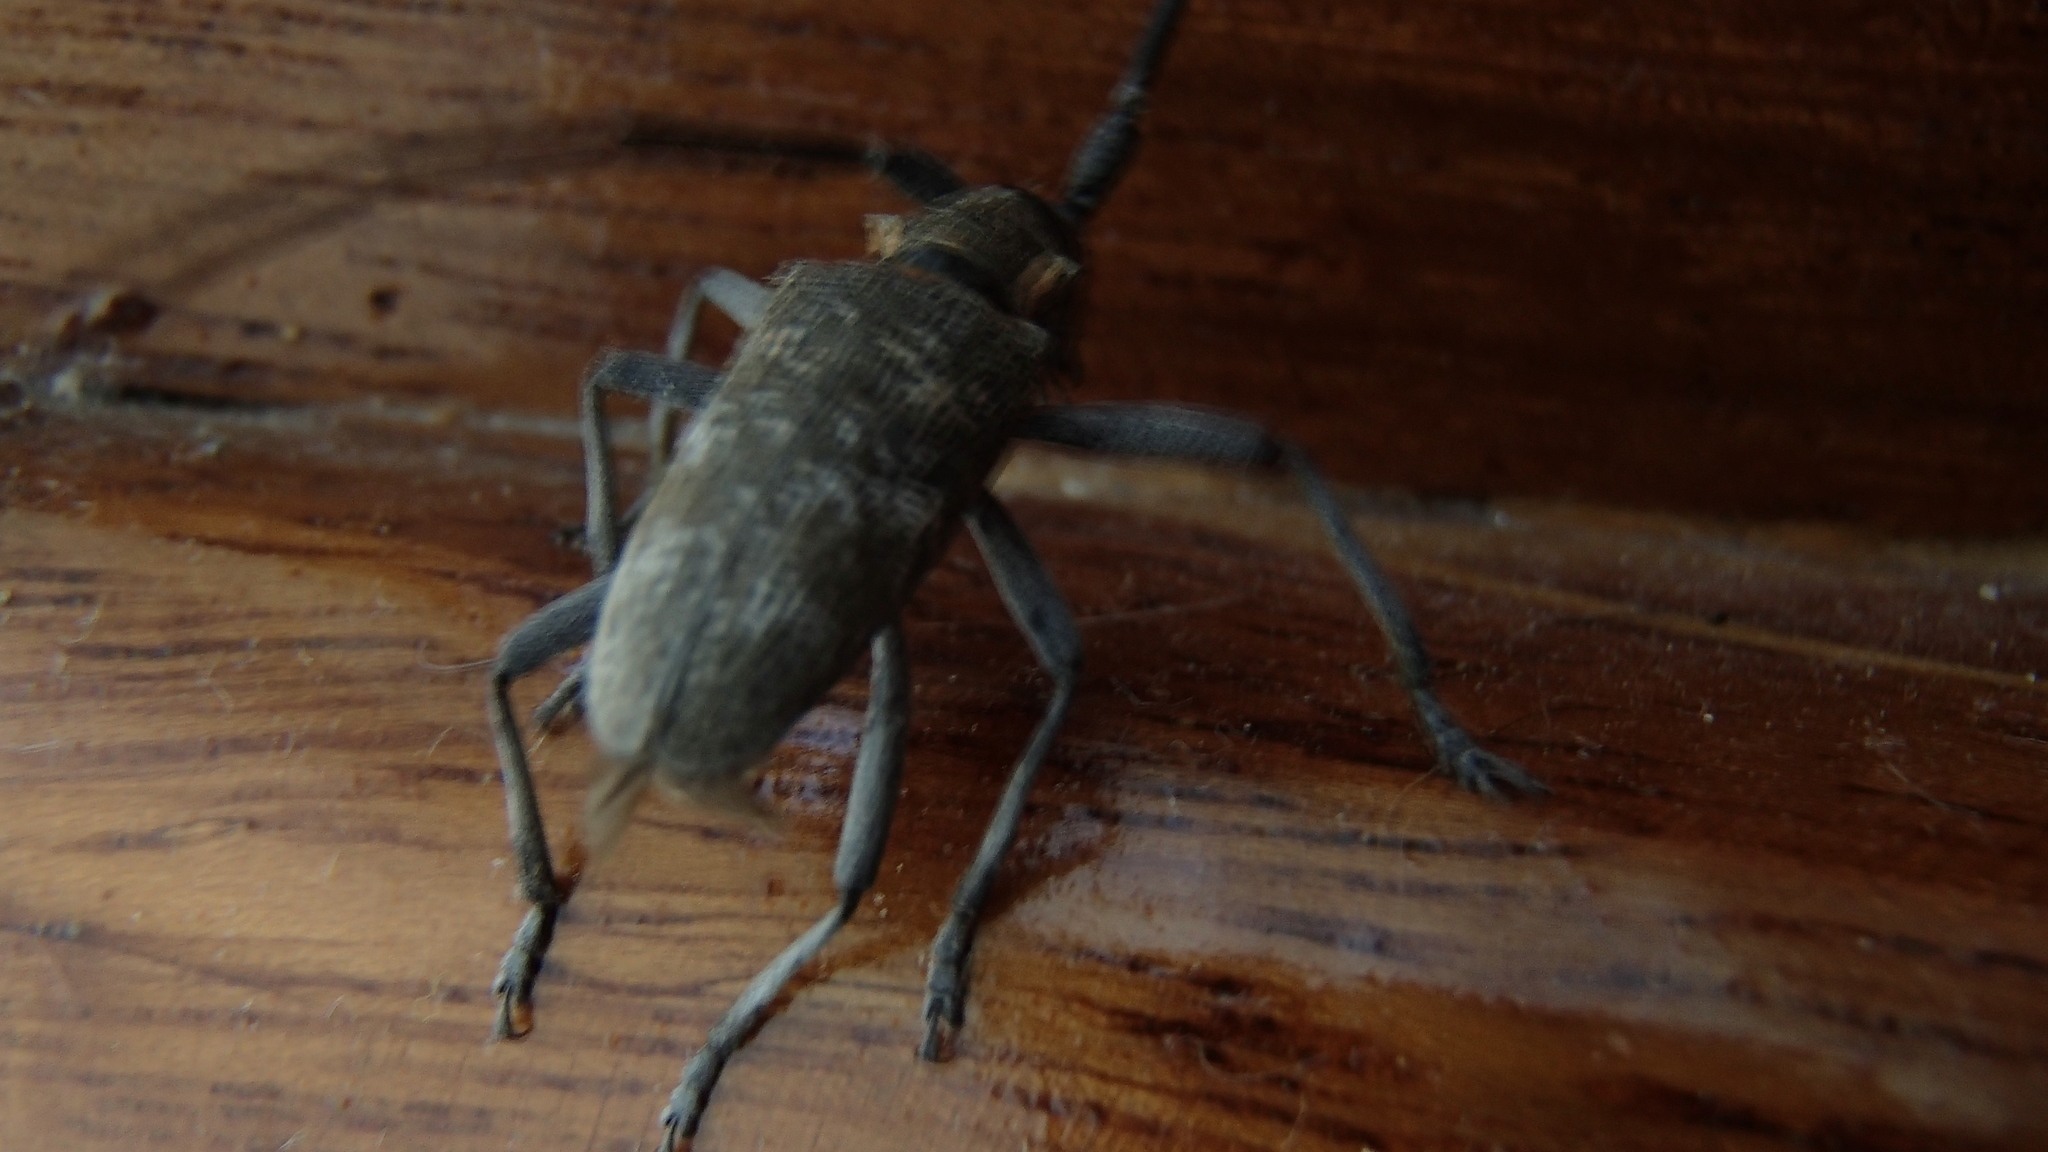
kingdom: Animalia
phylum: Arthropoda
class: Insecta
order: Coleoptera
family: Cerambycidae
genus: Monochamus
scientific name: Monochamus galloprovincialis
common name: Pine sawyer
